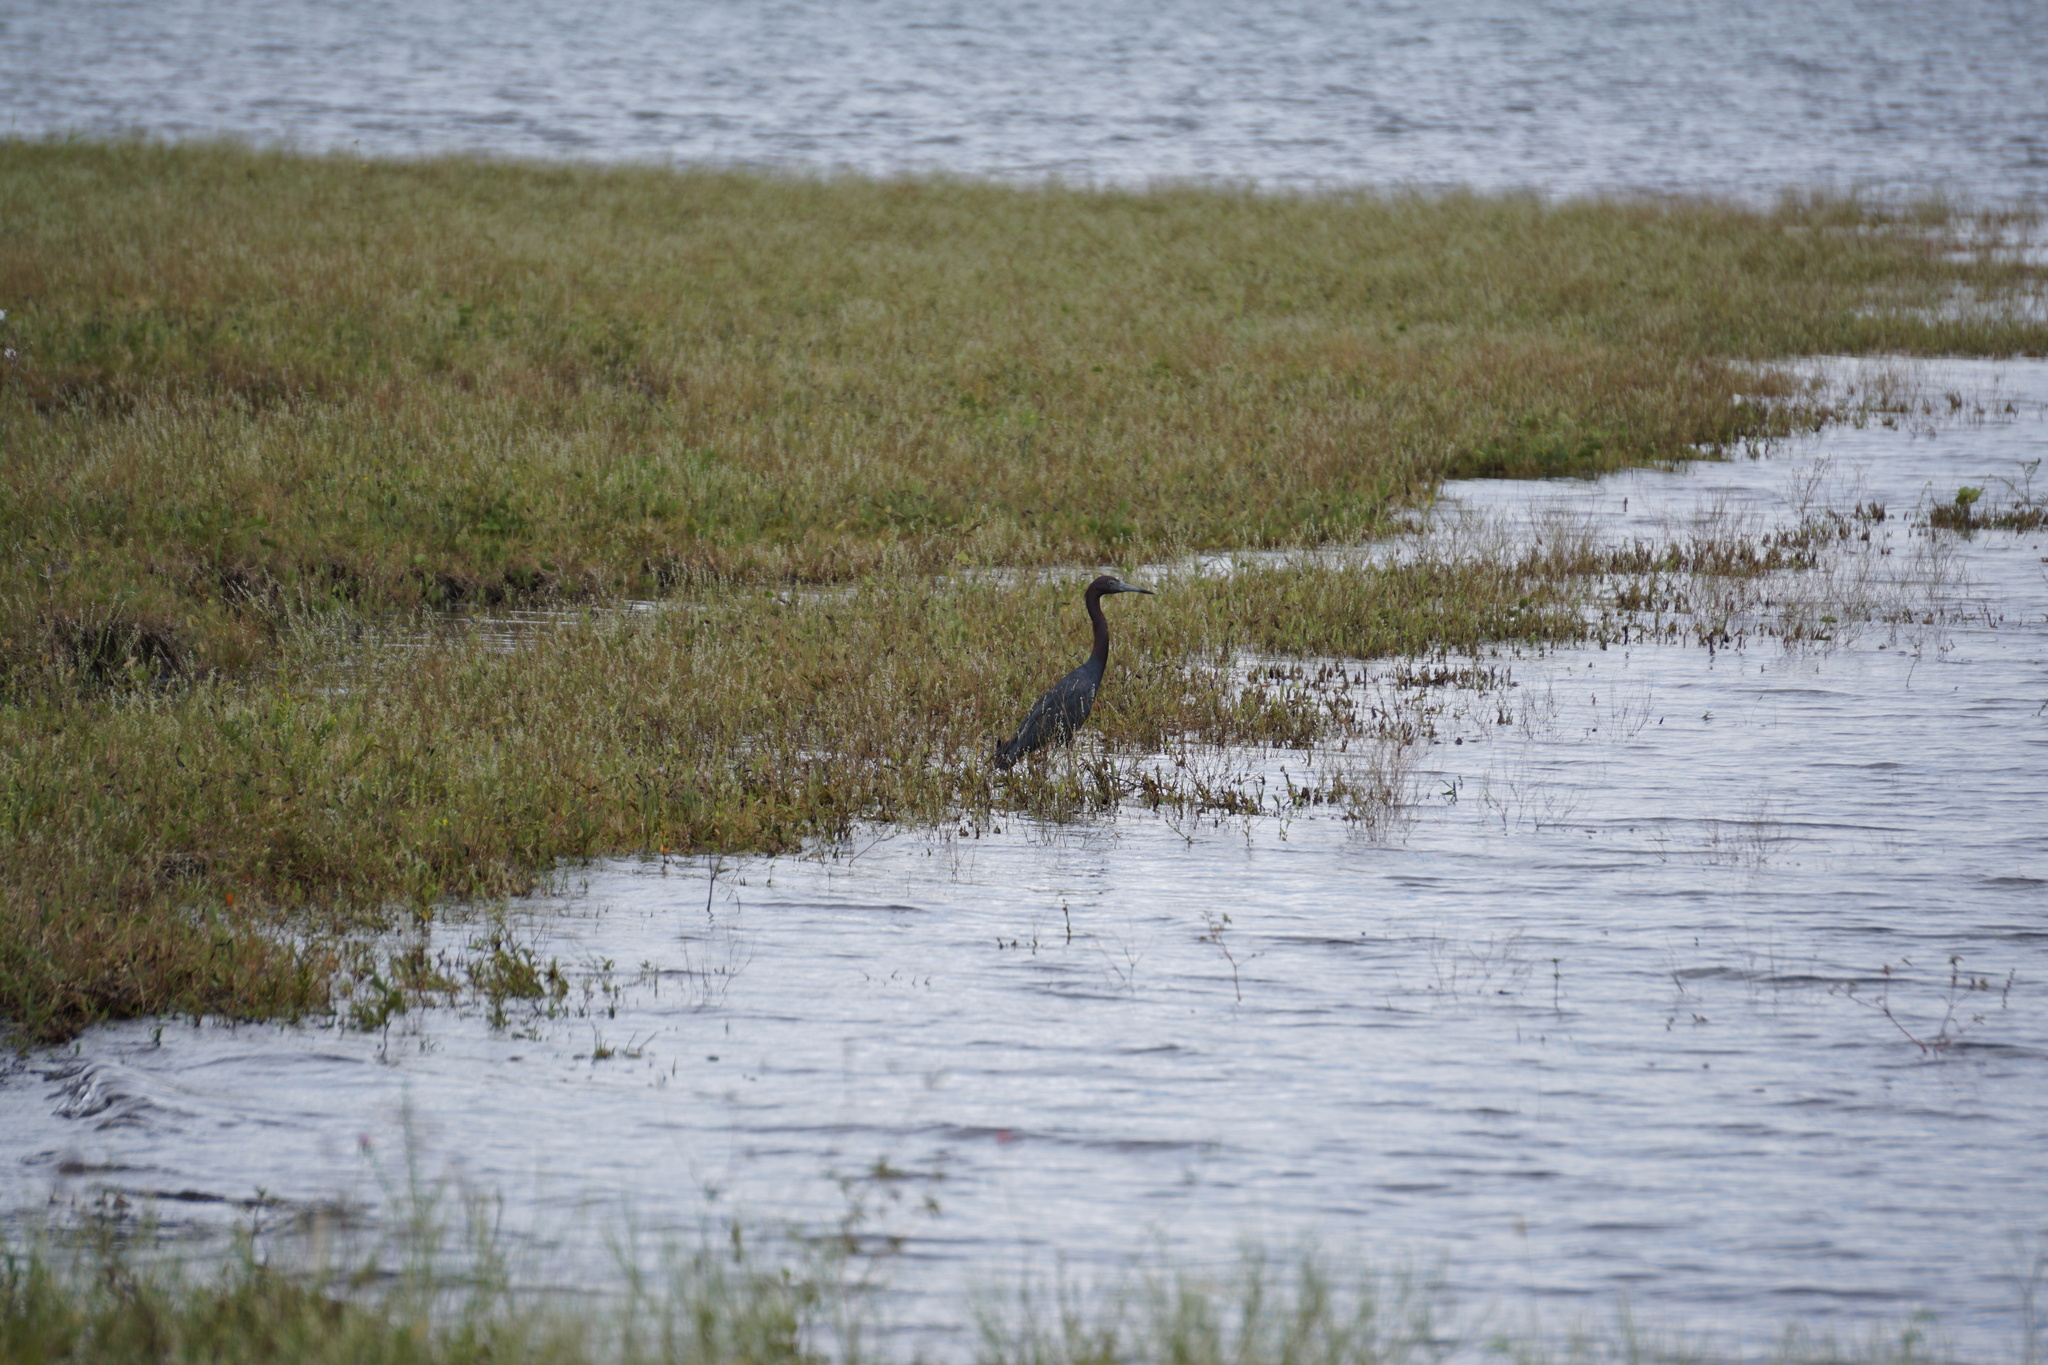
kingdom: Animalia
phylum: Chordata
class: Aves
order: Pelecaniformes
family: Ardeidae
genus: Egretta
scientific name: Egretta caerulea
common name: Little blue heron
